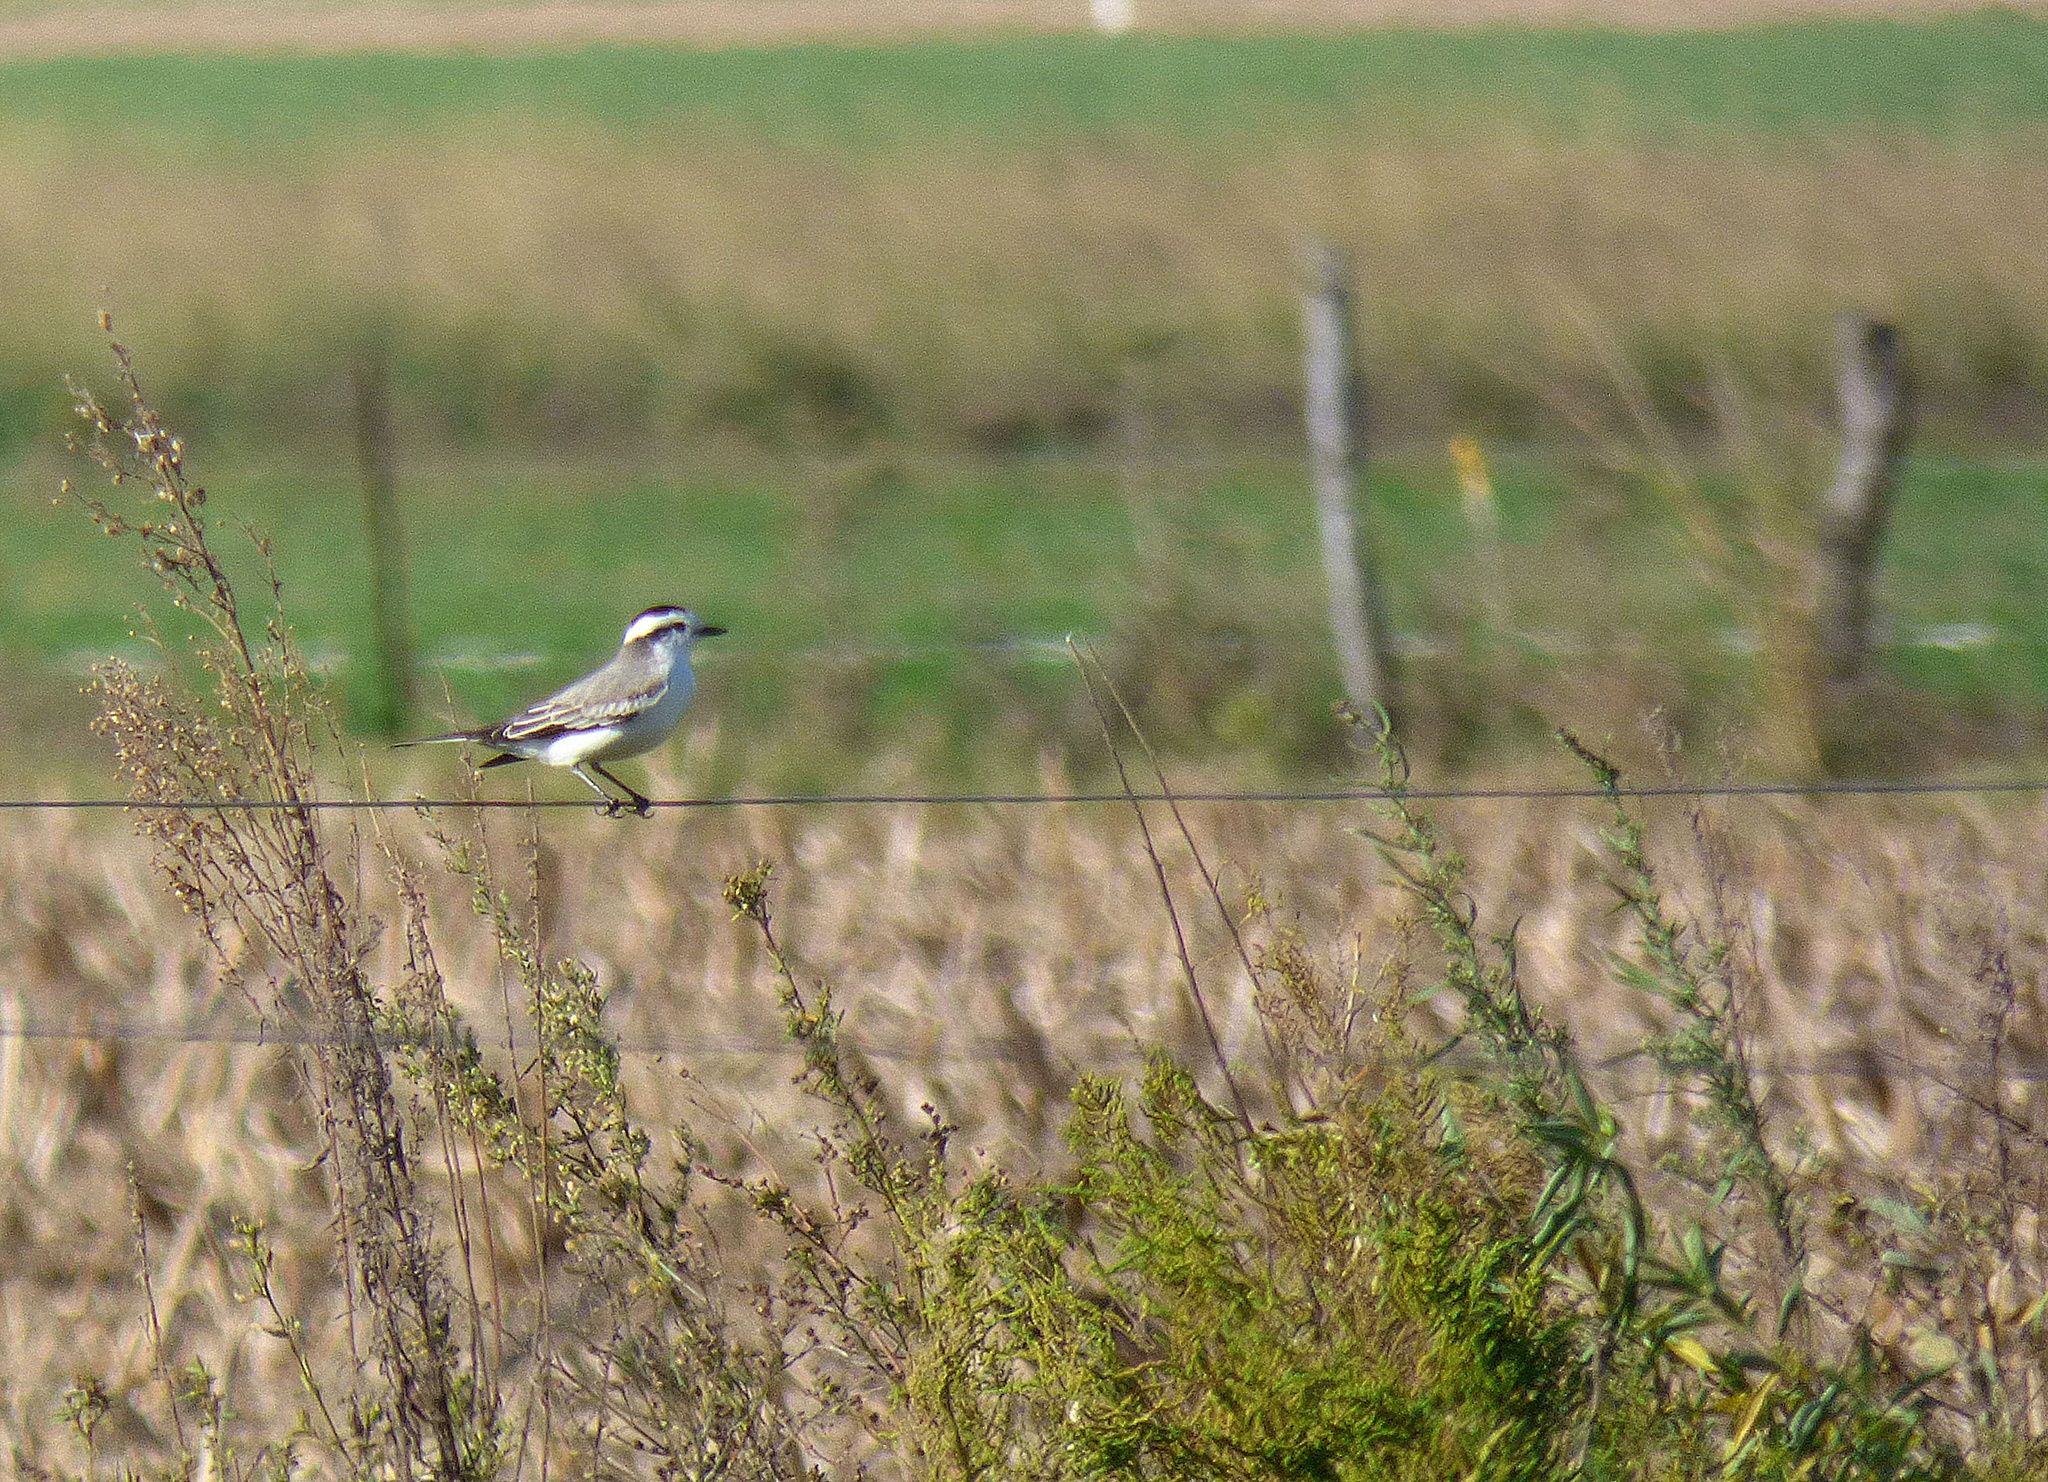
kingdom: Animalia
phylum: Chordata
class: Aves
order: Passeriformes
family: Tyrannidae
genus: Xolmis
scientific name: Xolmis coronatus
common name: Black-crowned monjita
